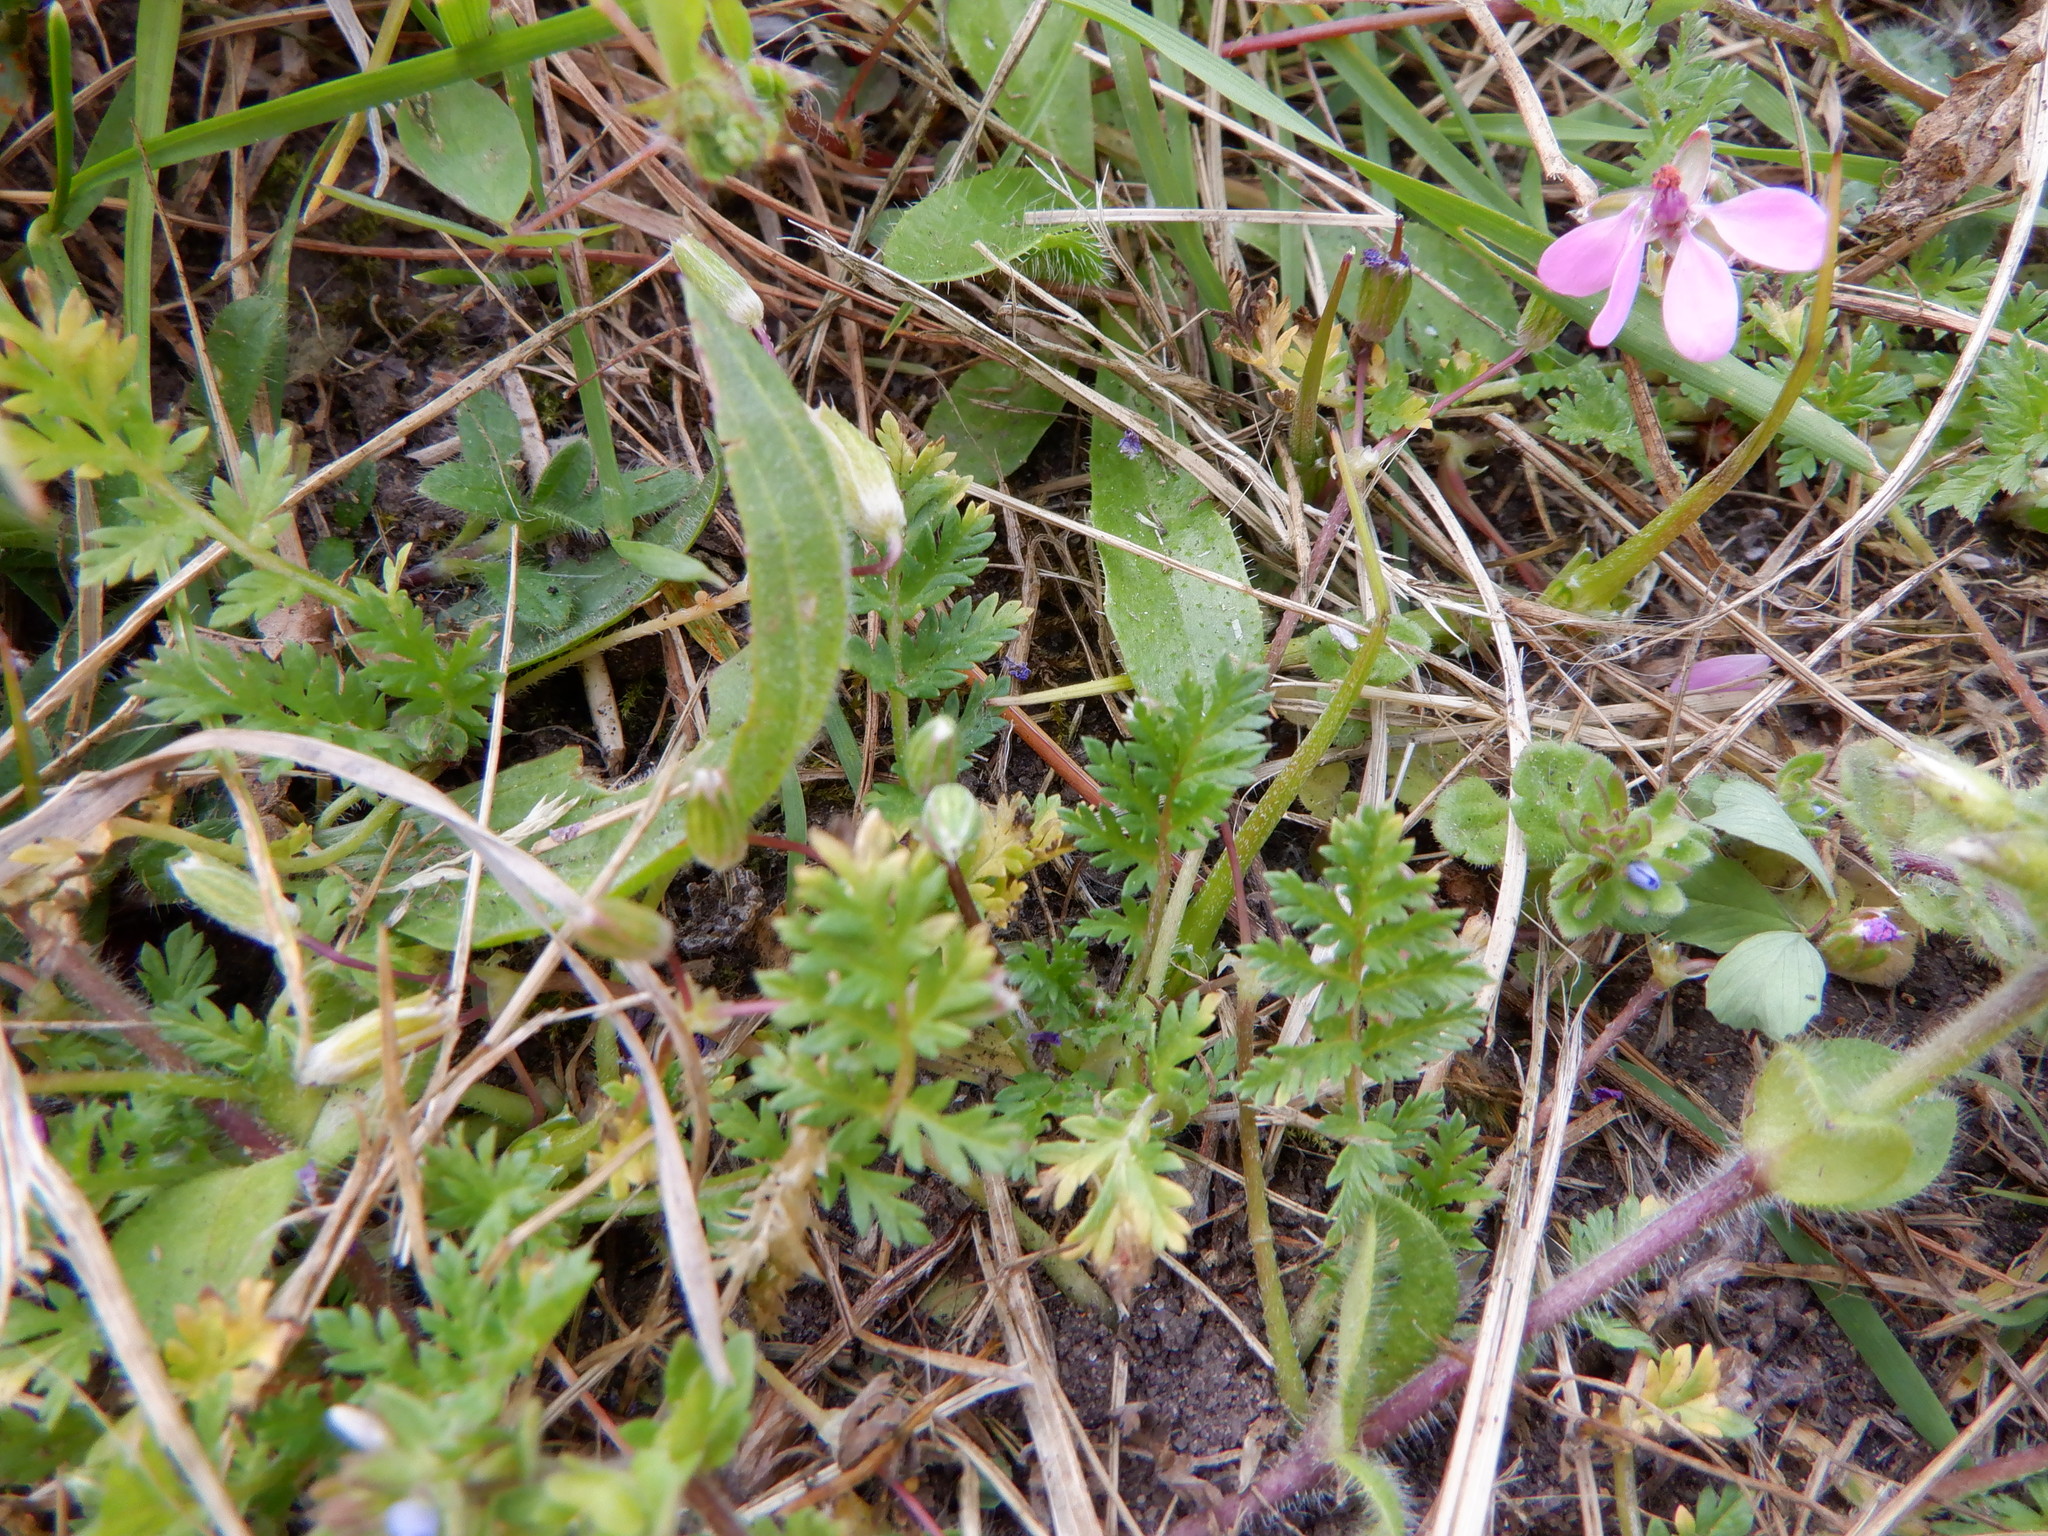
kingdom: Plantae
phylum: Tracheophyta
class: Magnoliopsida
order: Geraniales
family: Geraniaceae
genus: Erodium
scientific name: Erodium cicutarium
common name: Common stork's-bill
